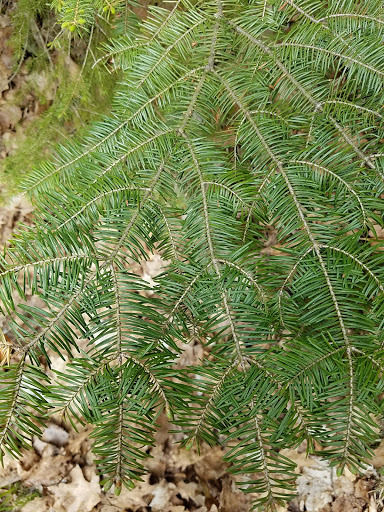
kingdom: Plantae
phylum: Tracheophyta
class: Pinopsida
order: Pinales
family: Pinaceae
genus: Abies
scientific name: Abies balsamea
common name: Balsam fir
